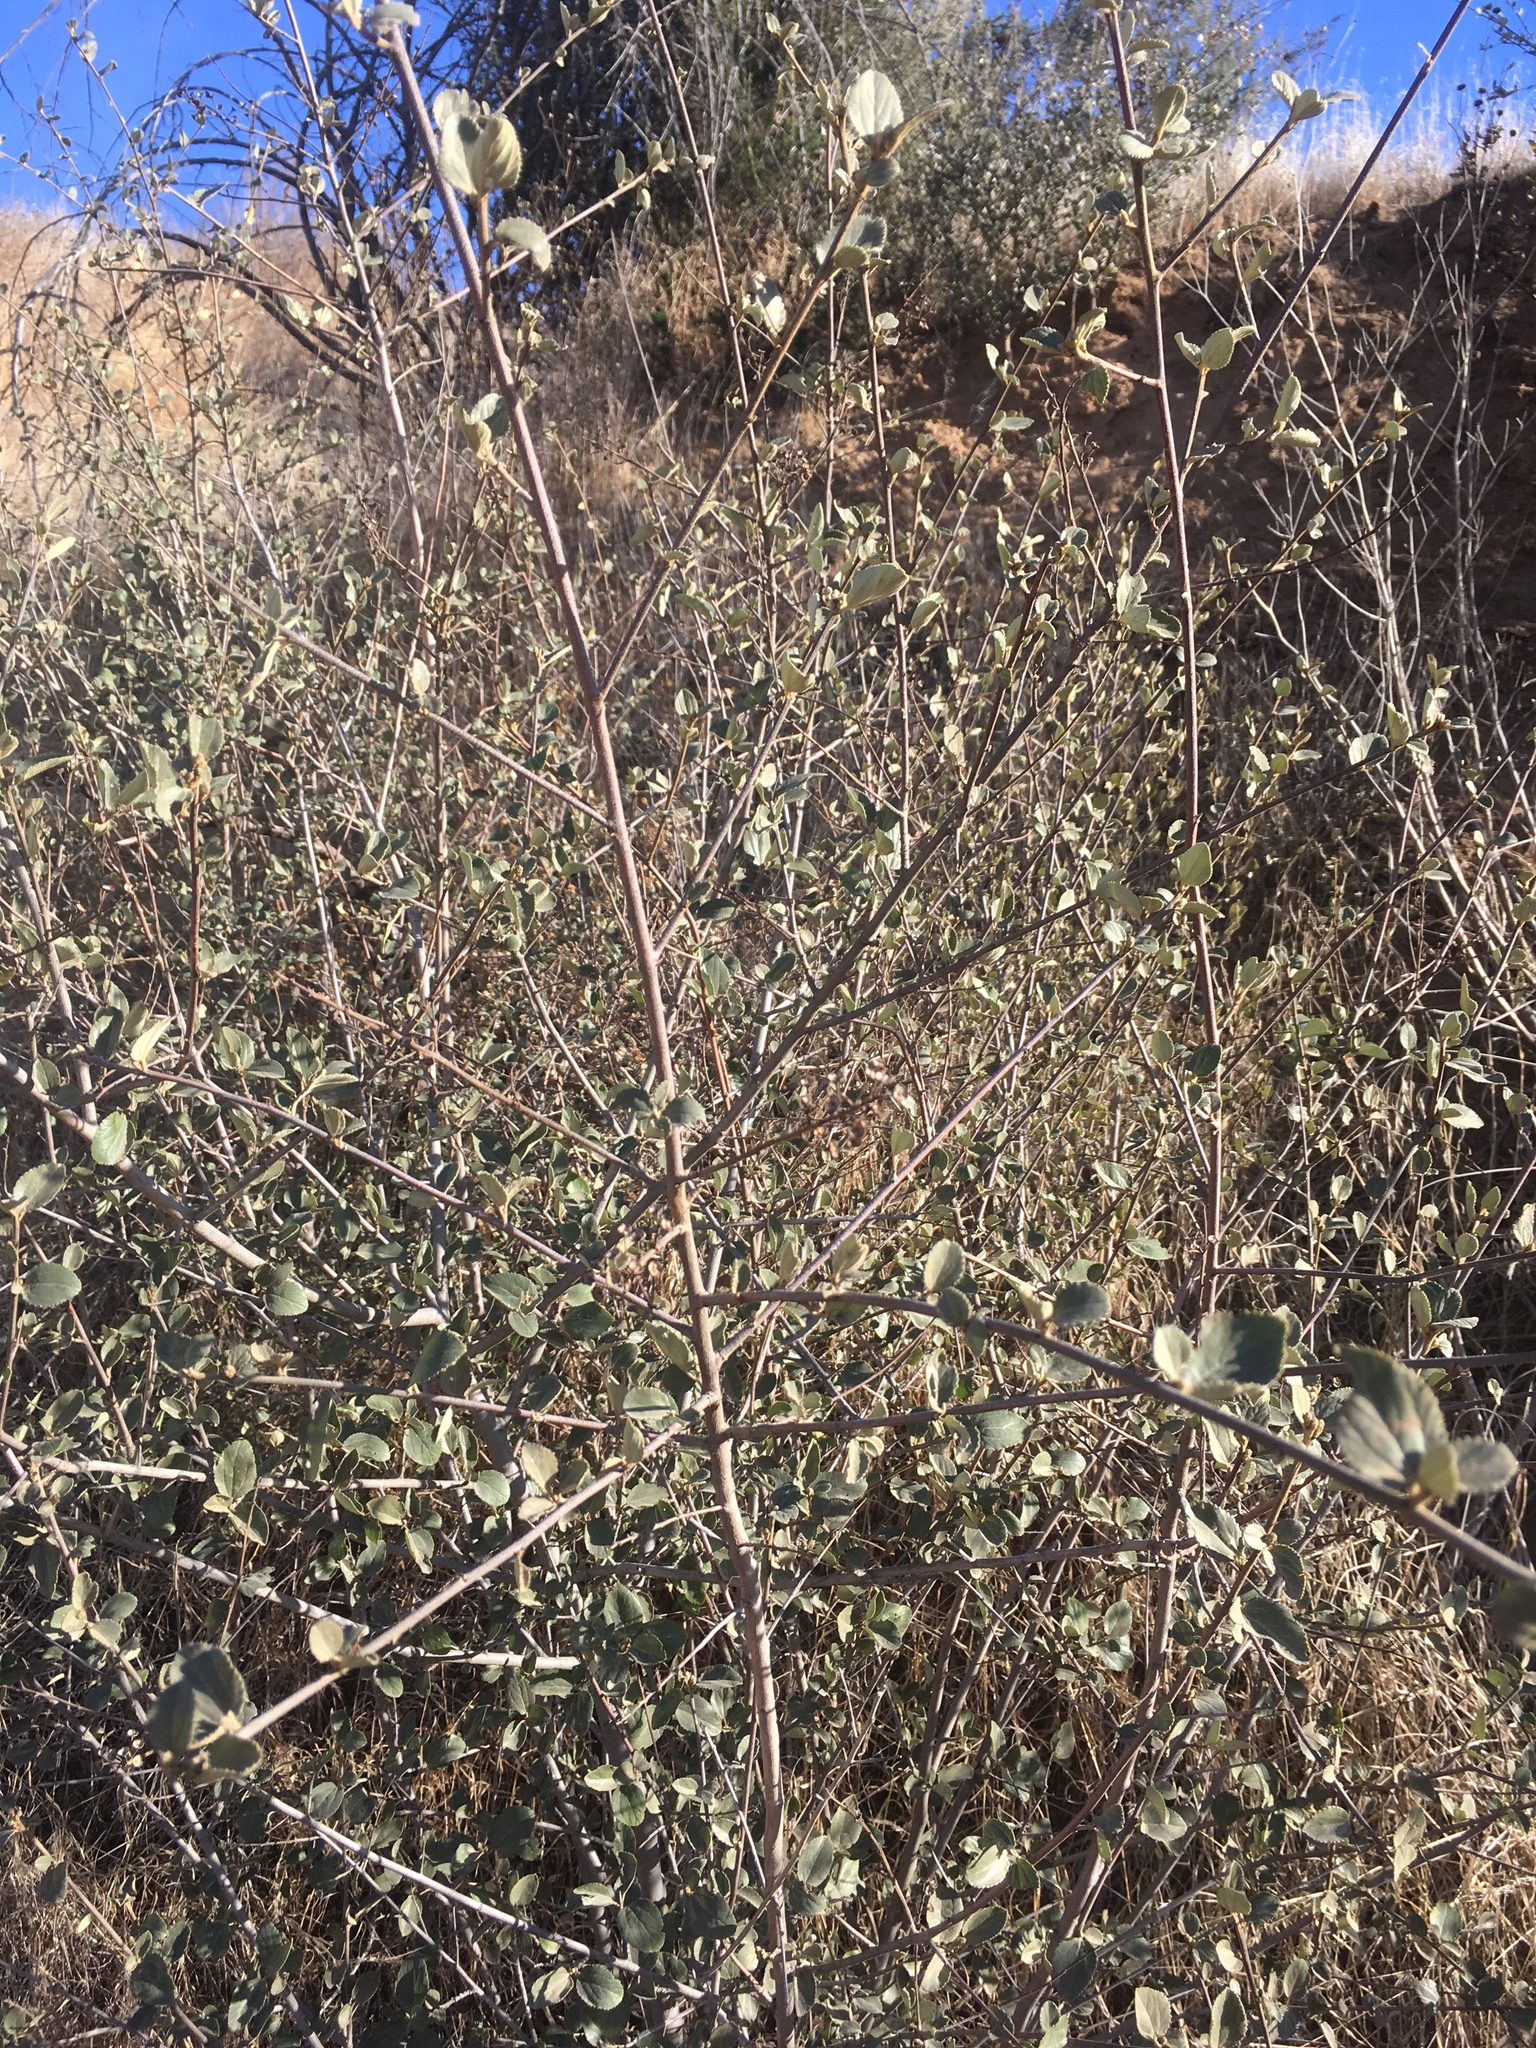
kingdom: Plantae
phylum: Tracheophyta
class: Magnoliopsida
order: Rosales
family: Rhamnaceae
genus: Ceanothus
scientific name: Ceanothus tomentosus
